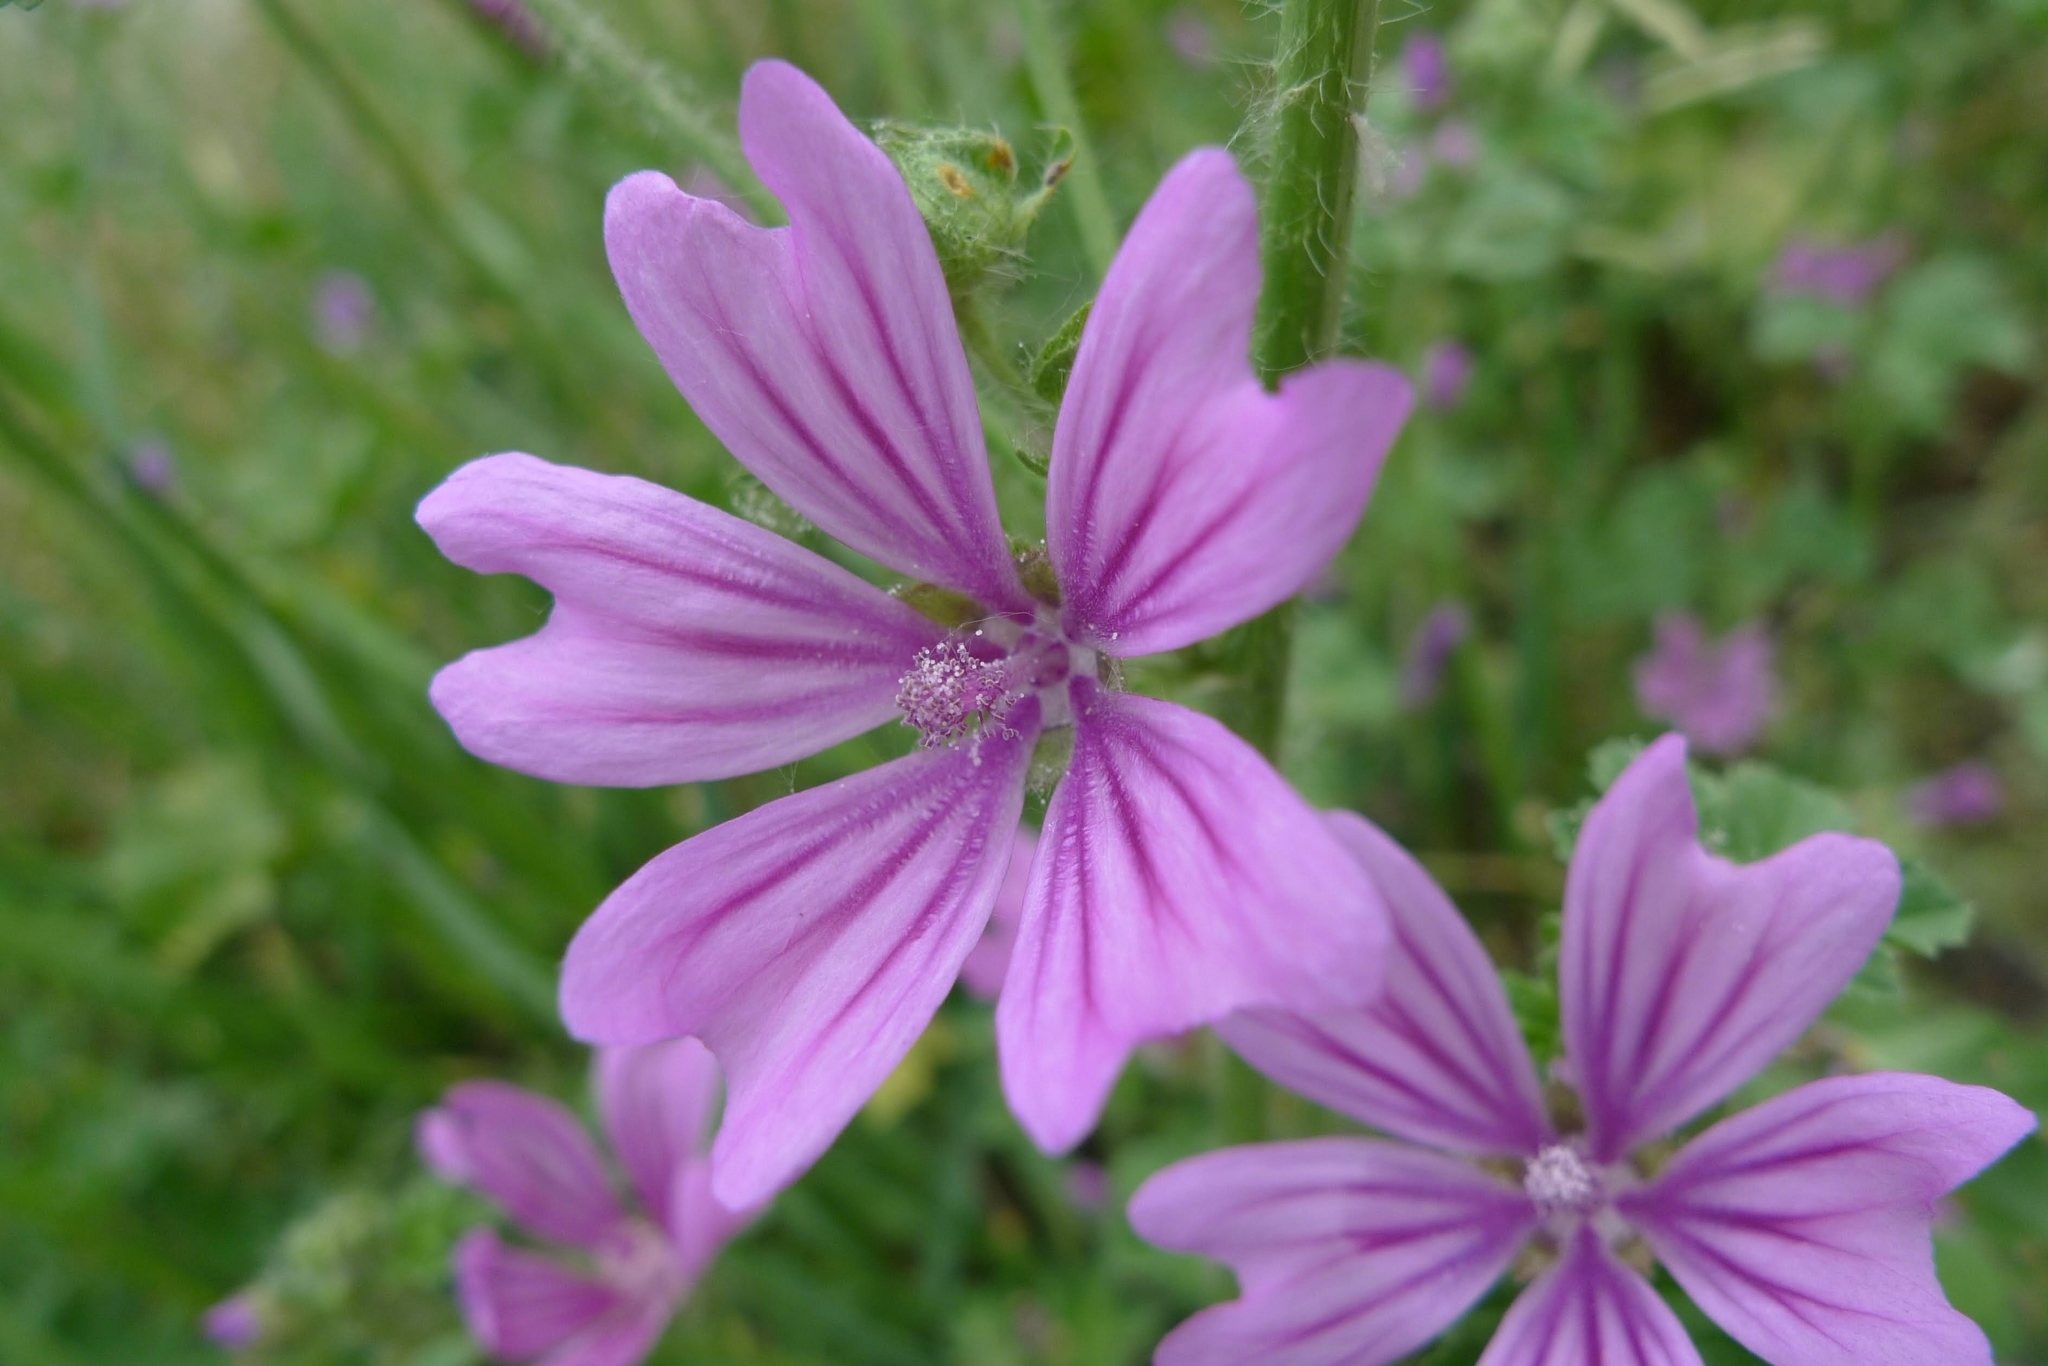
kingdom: Plantae
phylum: Tracheophyta
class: Magnoliopsida
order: Malvales
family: Malvaceae
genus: Malva
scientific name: Malva sylvestris
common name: Common mallow
